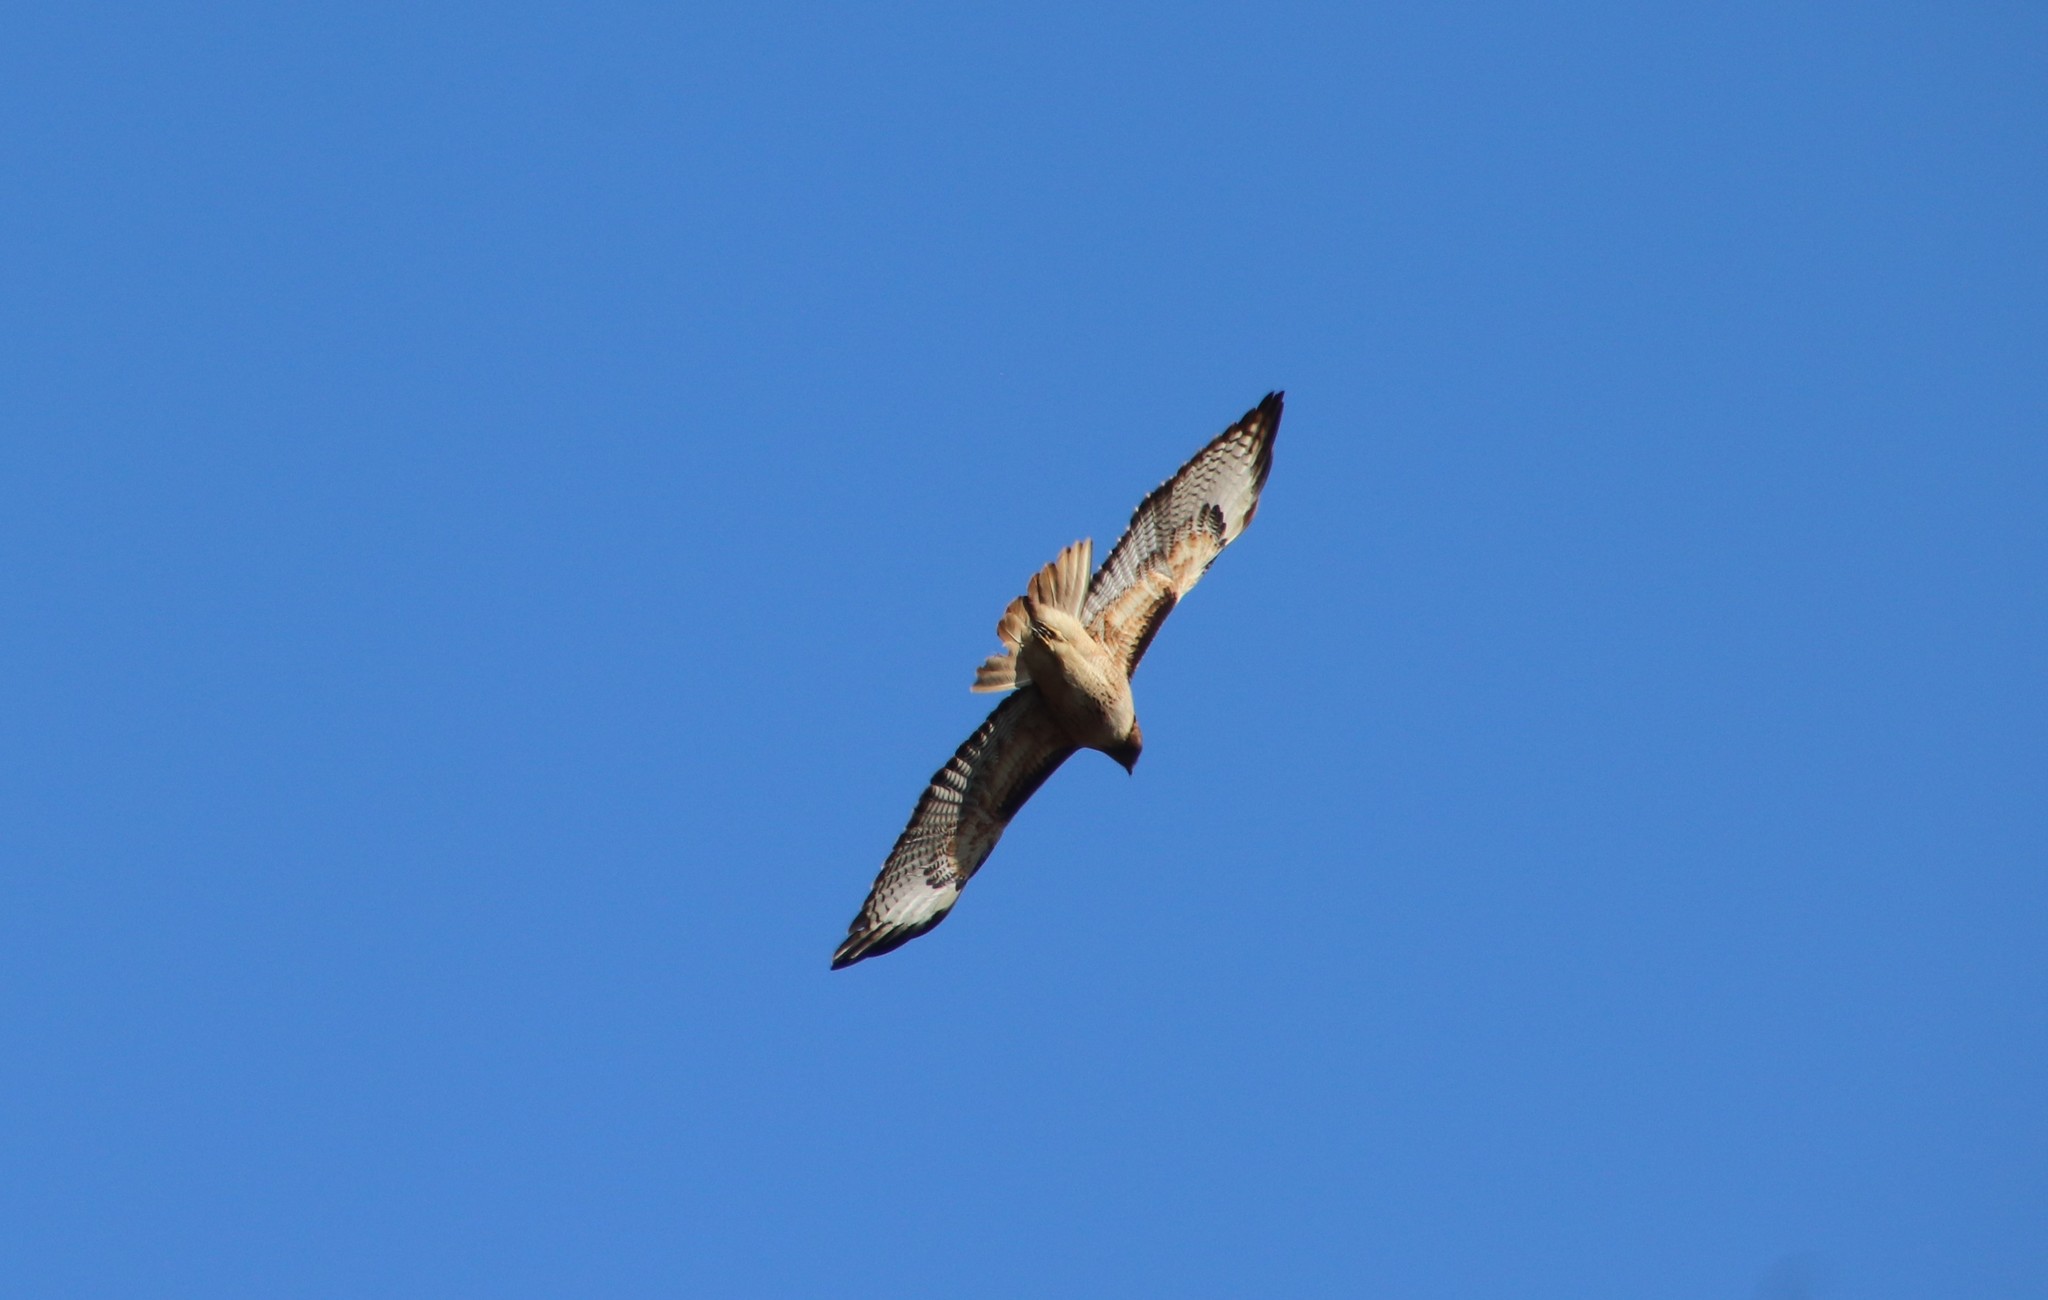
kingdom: Animalia
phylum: Chordata
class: Aves
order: Accipitriformes
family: Accipitridae
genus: Buteo
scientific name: Buteo jamaicensis
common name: Red-tailed hawk
